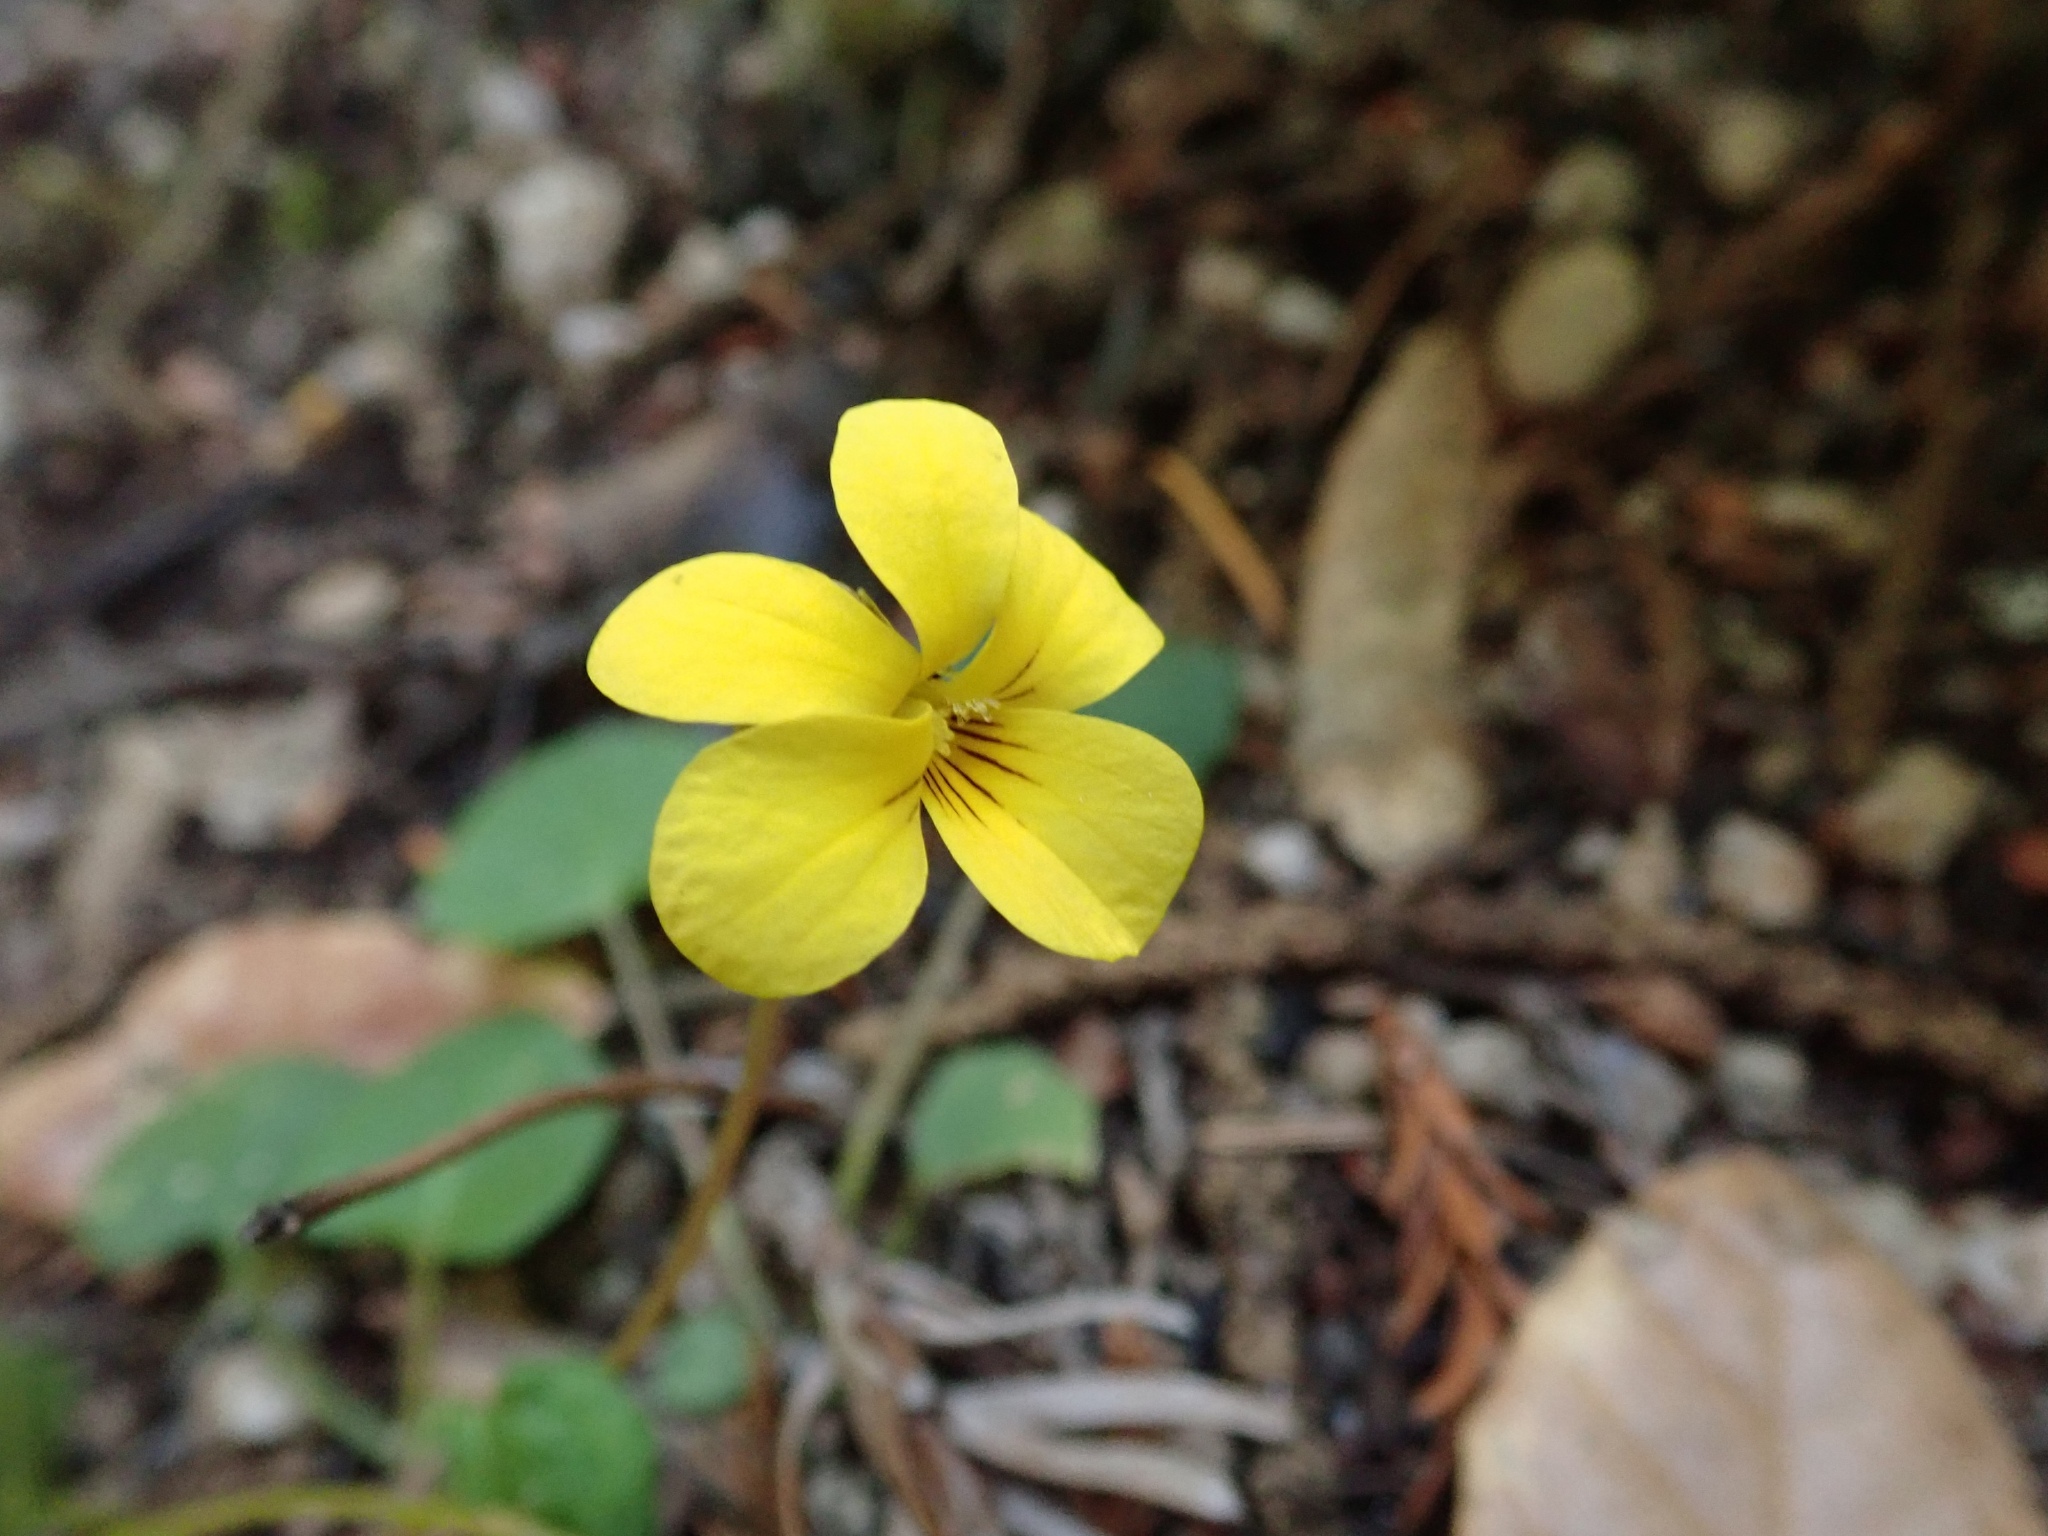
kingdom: Plantae
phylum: Tracheophyta
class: Magnoliopsida
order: Malpighiales
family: Violaceae
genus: Viola
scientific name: Viola sempervirens
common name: Evergreen violet
